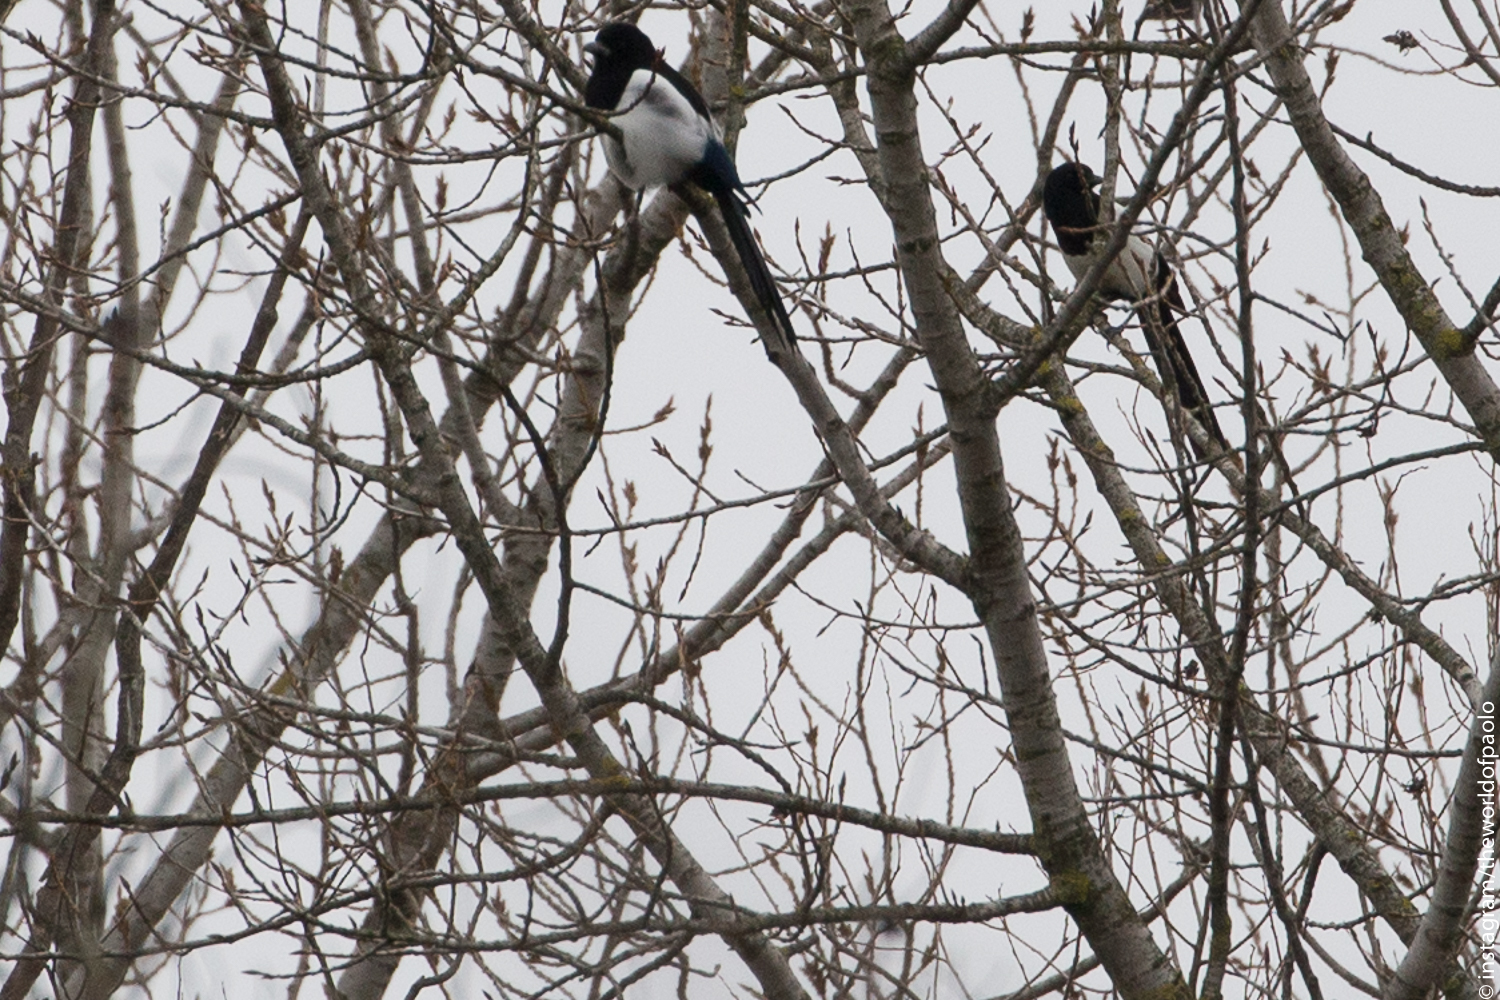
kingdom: Animalia
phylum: Chordata
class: Aves
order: Passeriformes
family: Corvidae
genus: Pica
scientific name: Pica pica
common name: Eurasian magpie
